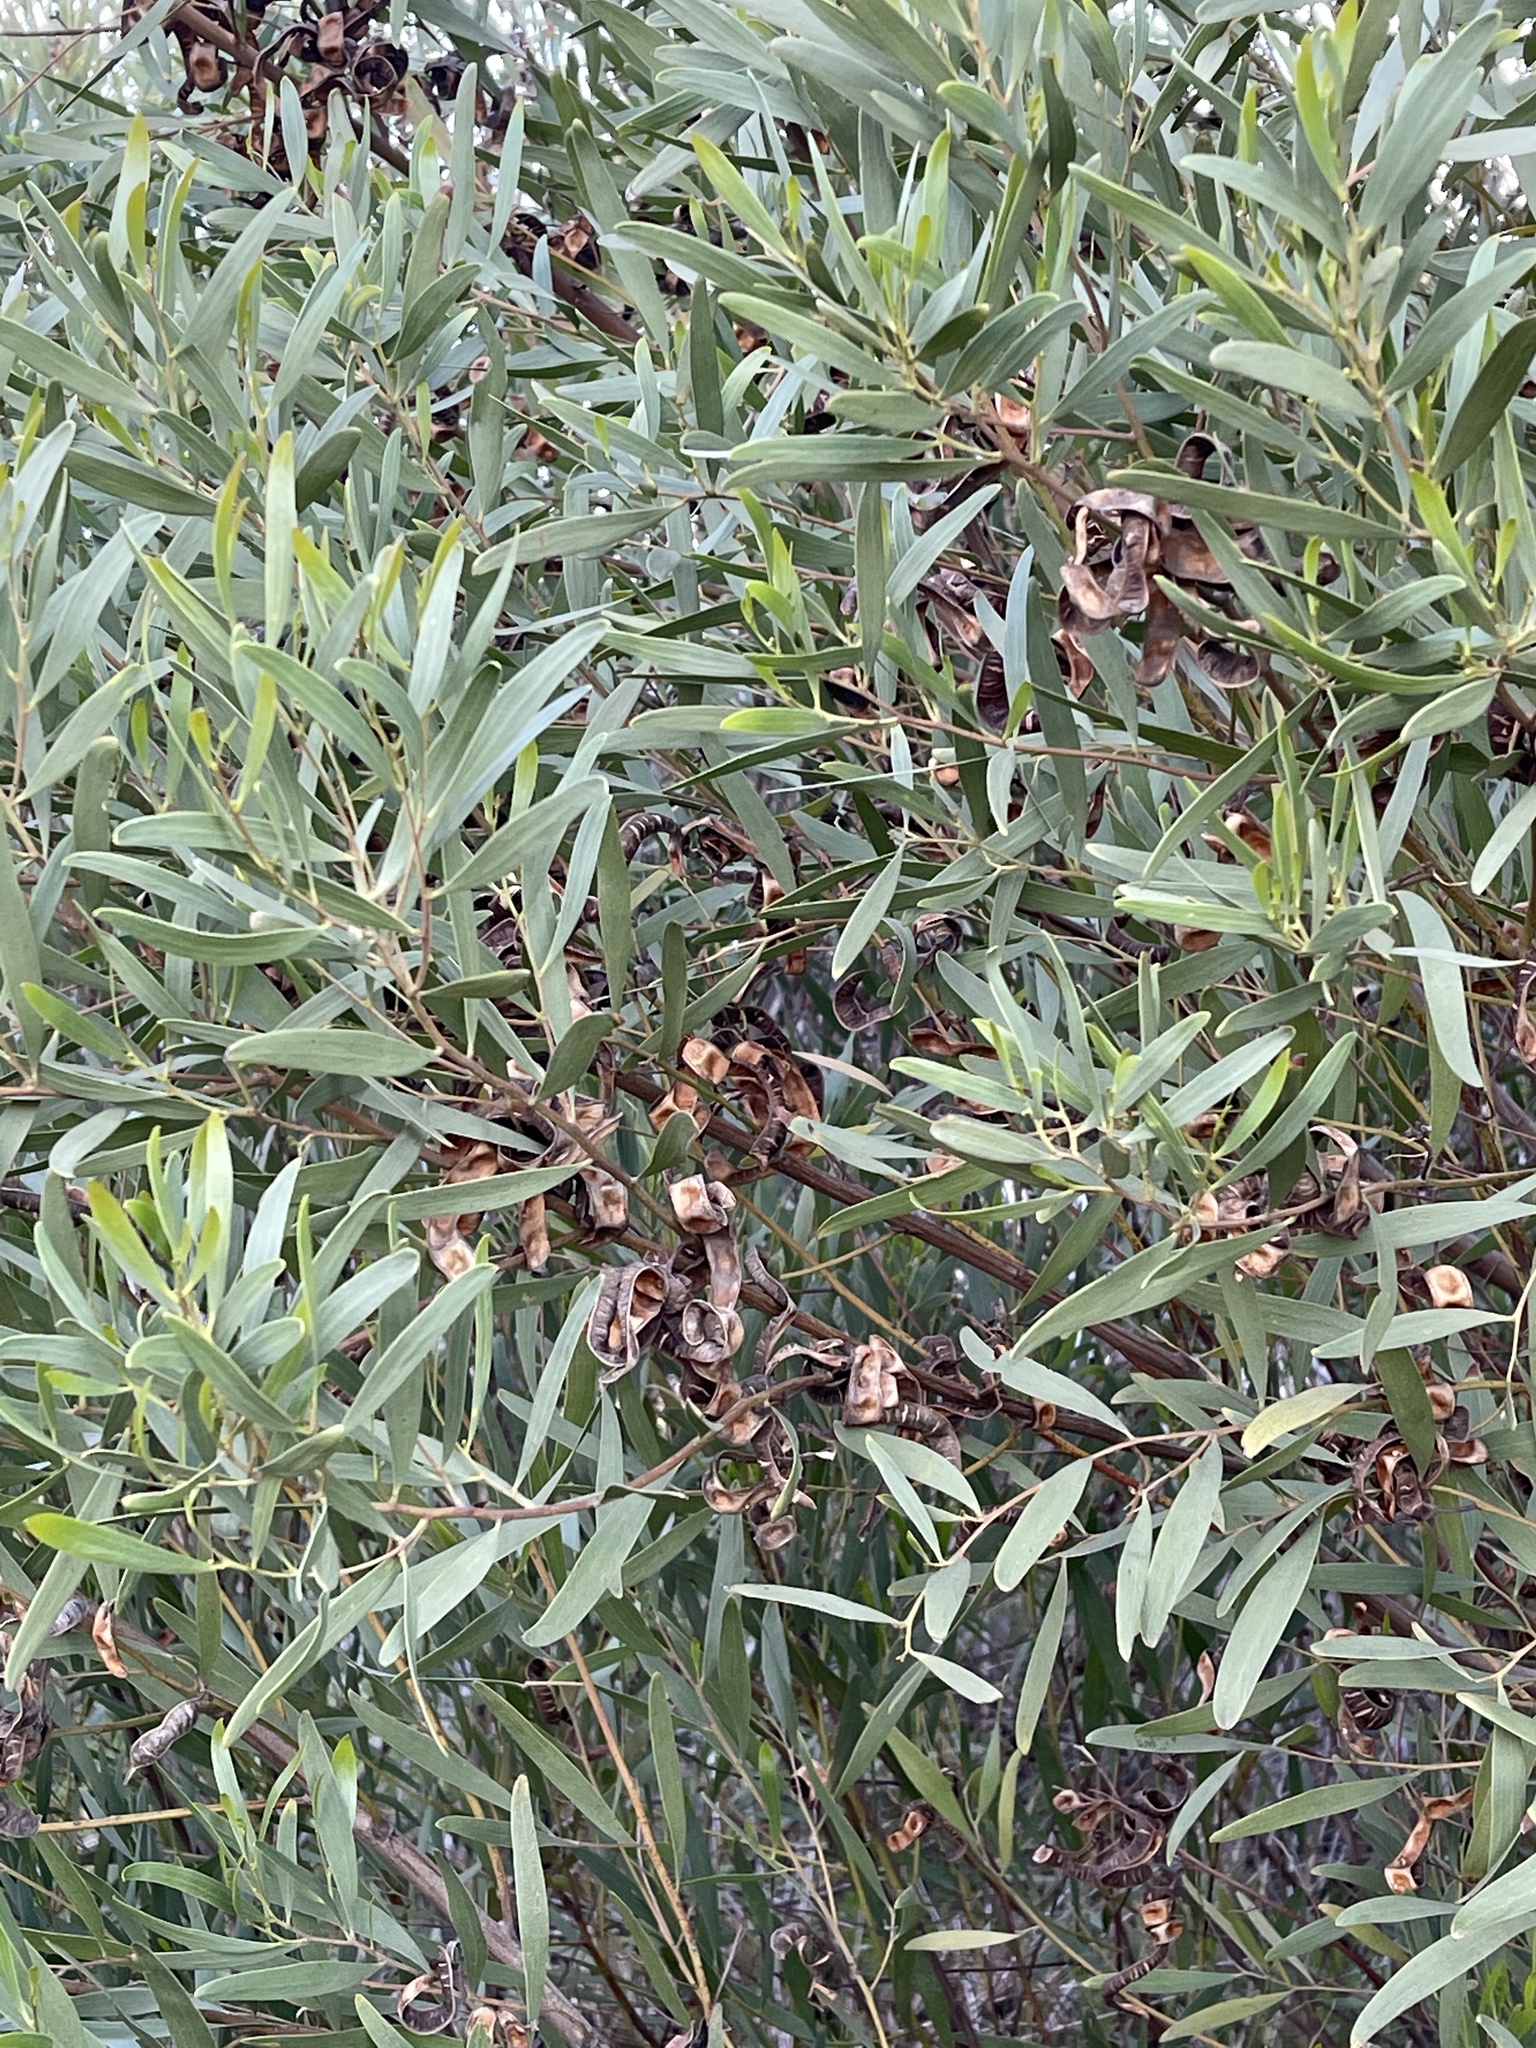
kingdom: Plantae
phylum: Tracheophyta
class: Magnoliopsida
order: Fabales
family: Fabaceae
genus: Acacia
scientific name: Acacia cyclops
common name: Coastal wattle
